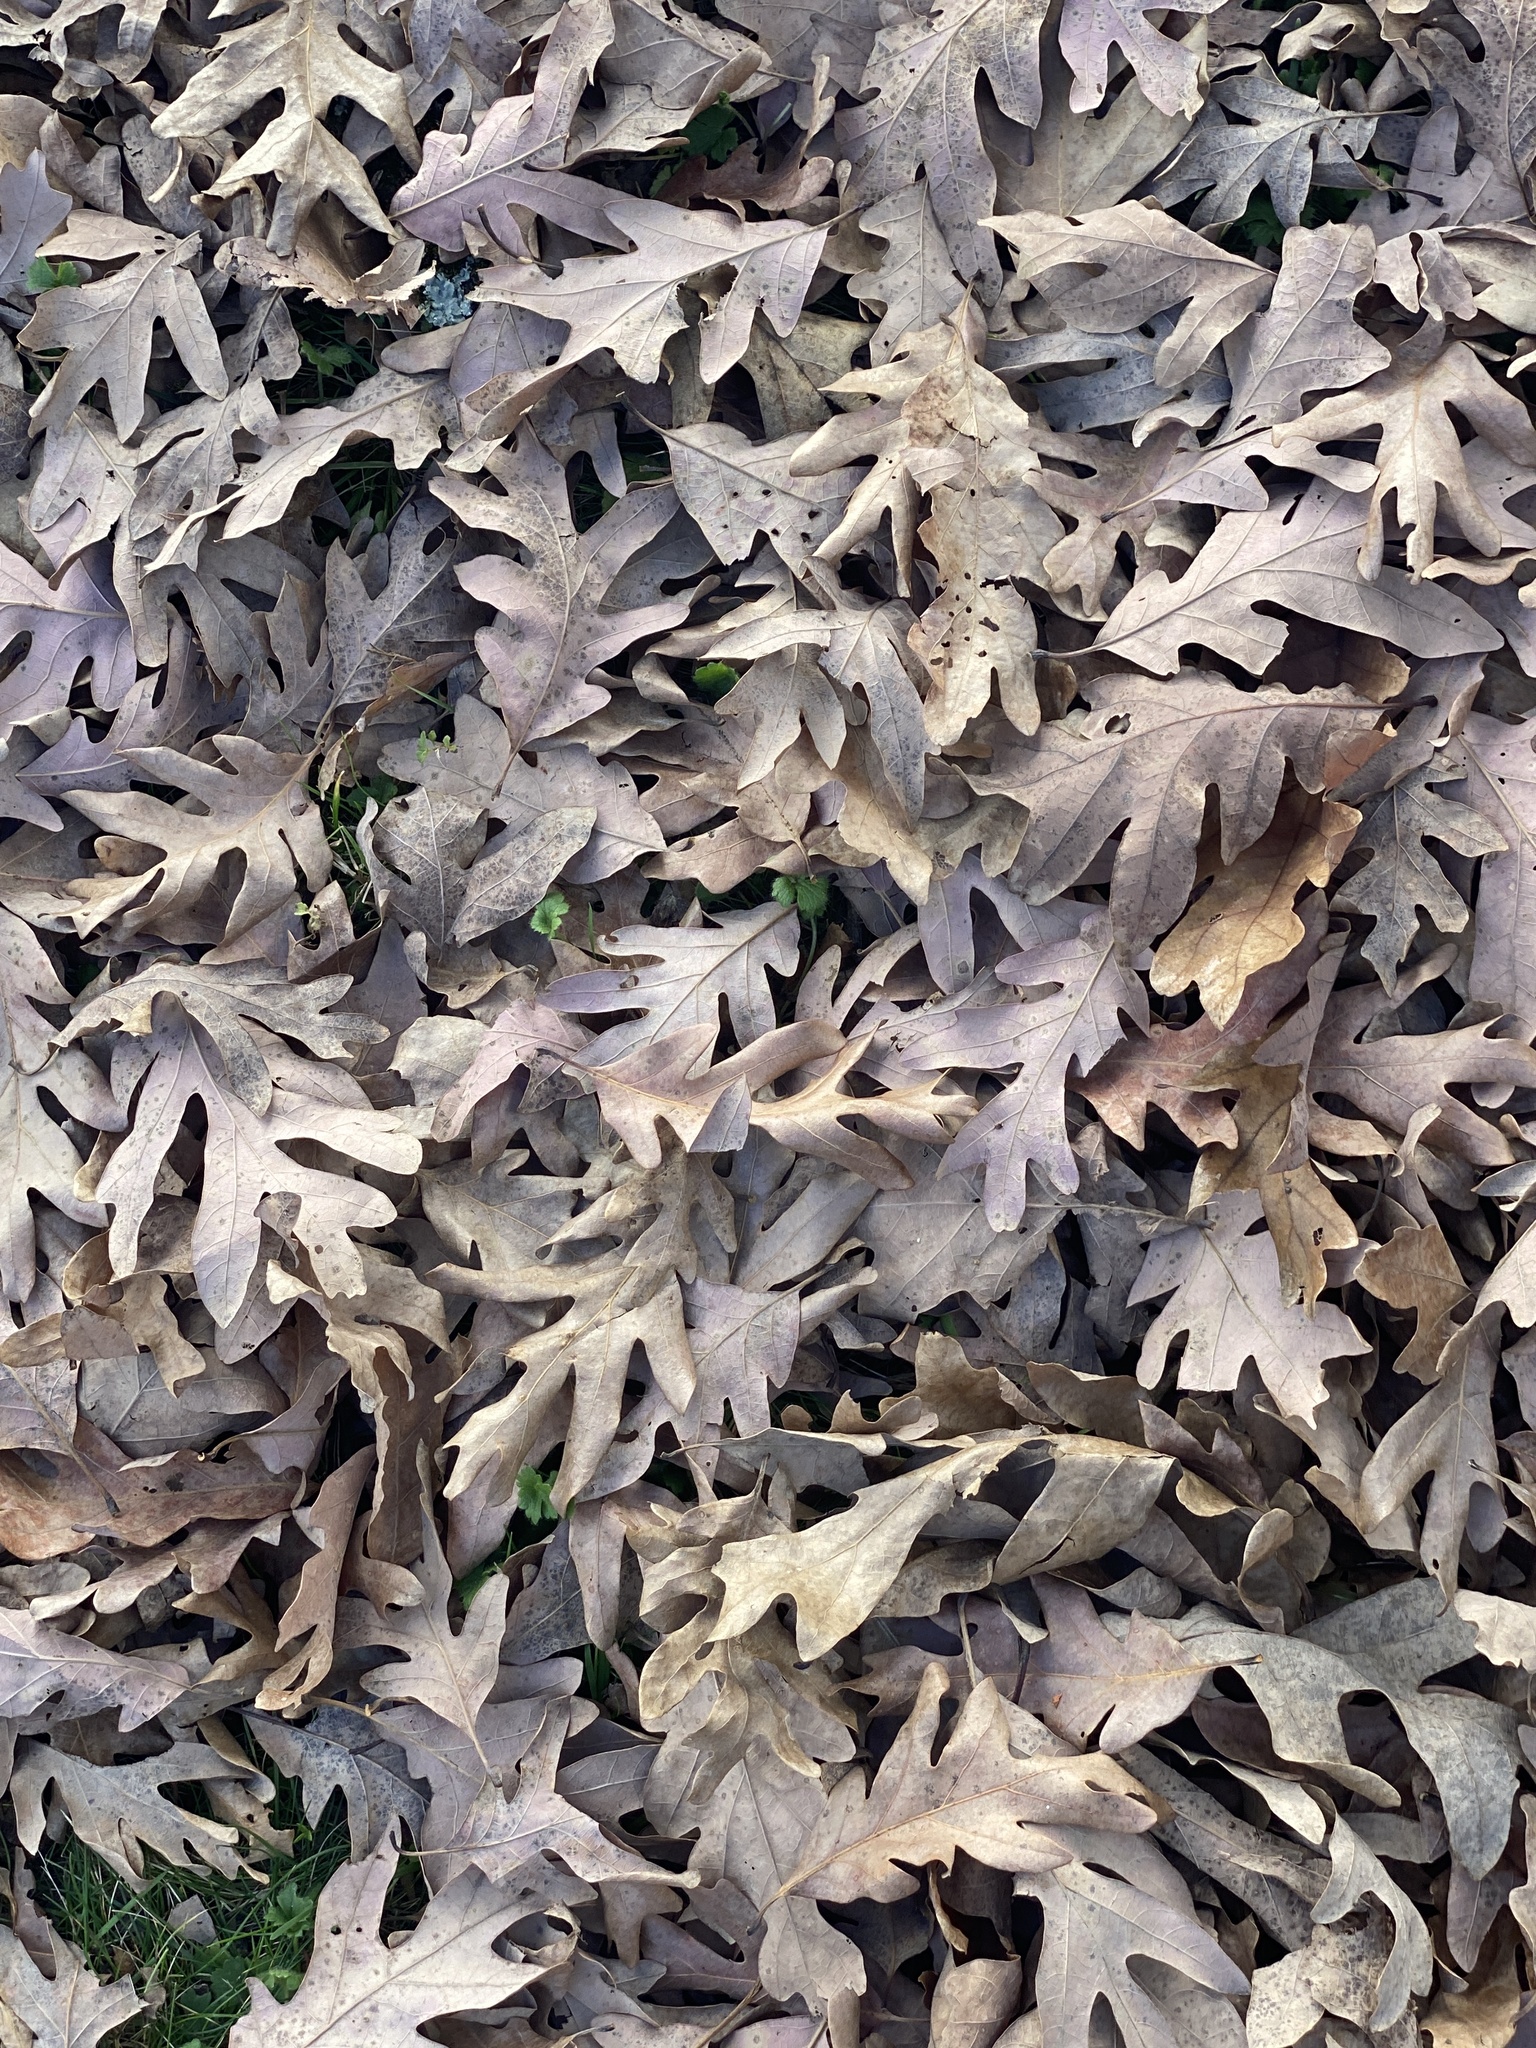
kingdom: Plantae
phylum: Tracheophyta
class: Magnoliopsida
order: Fagales
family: Fagaceae
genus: Quercus
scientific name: Quercus alba
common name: White oak
